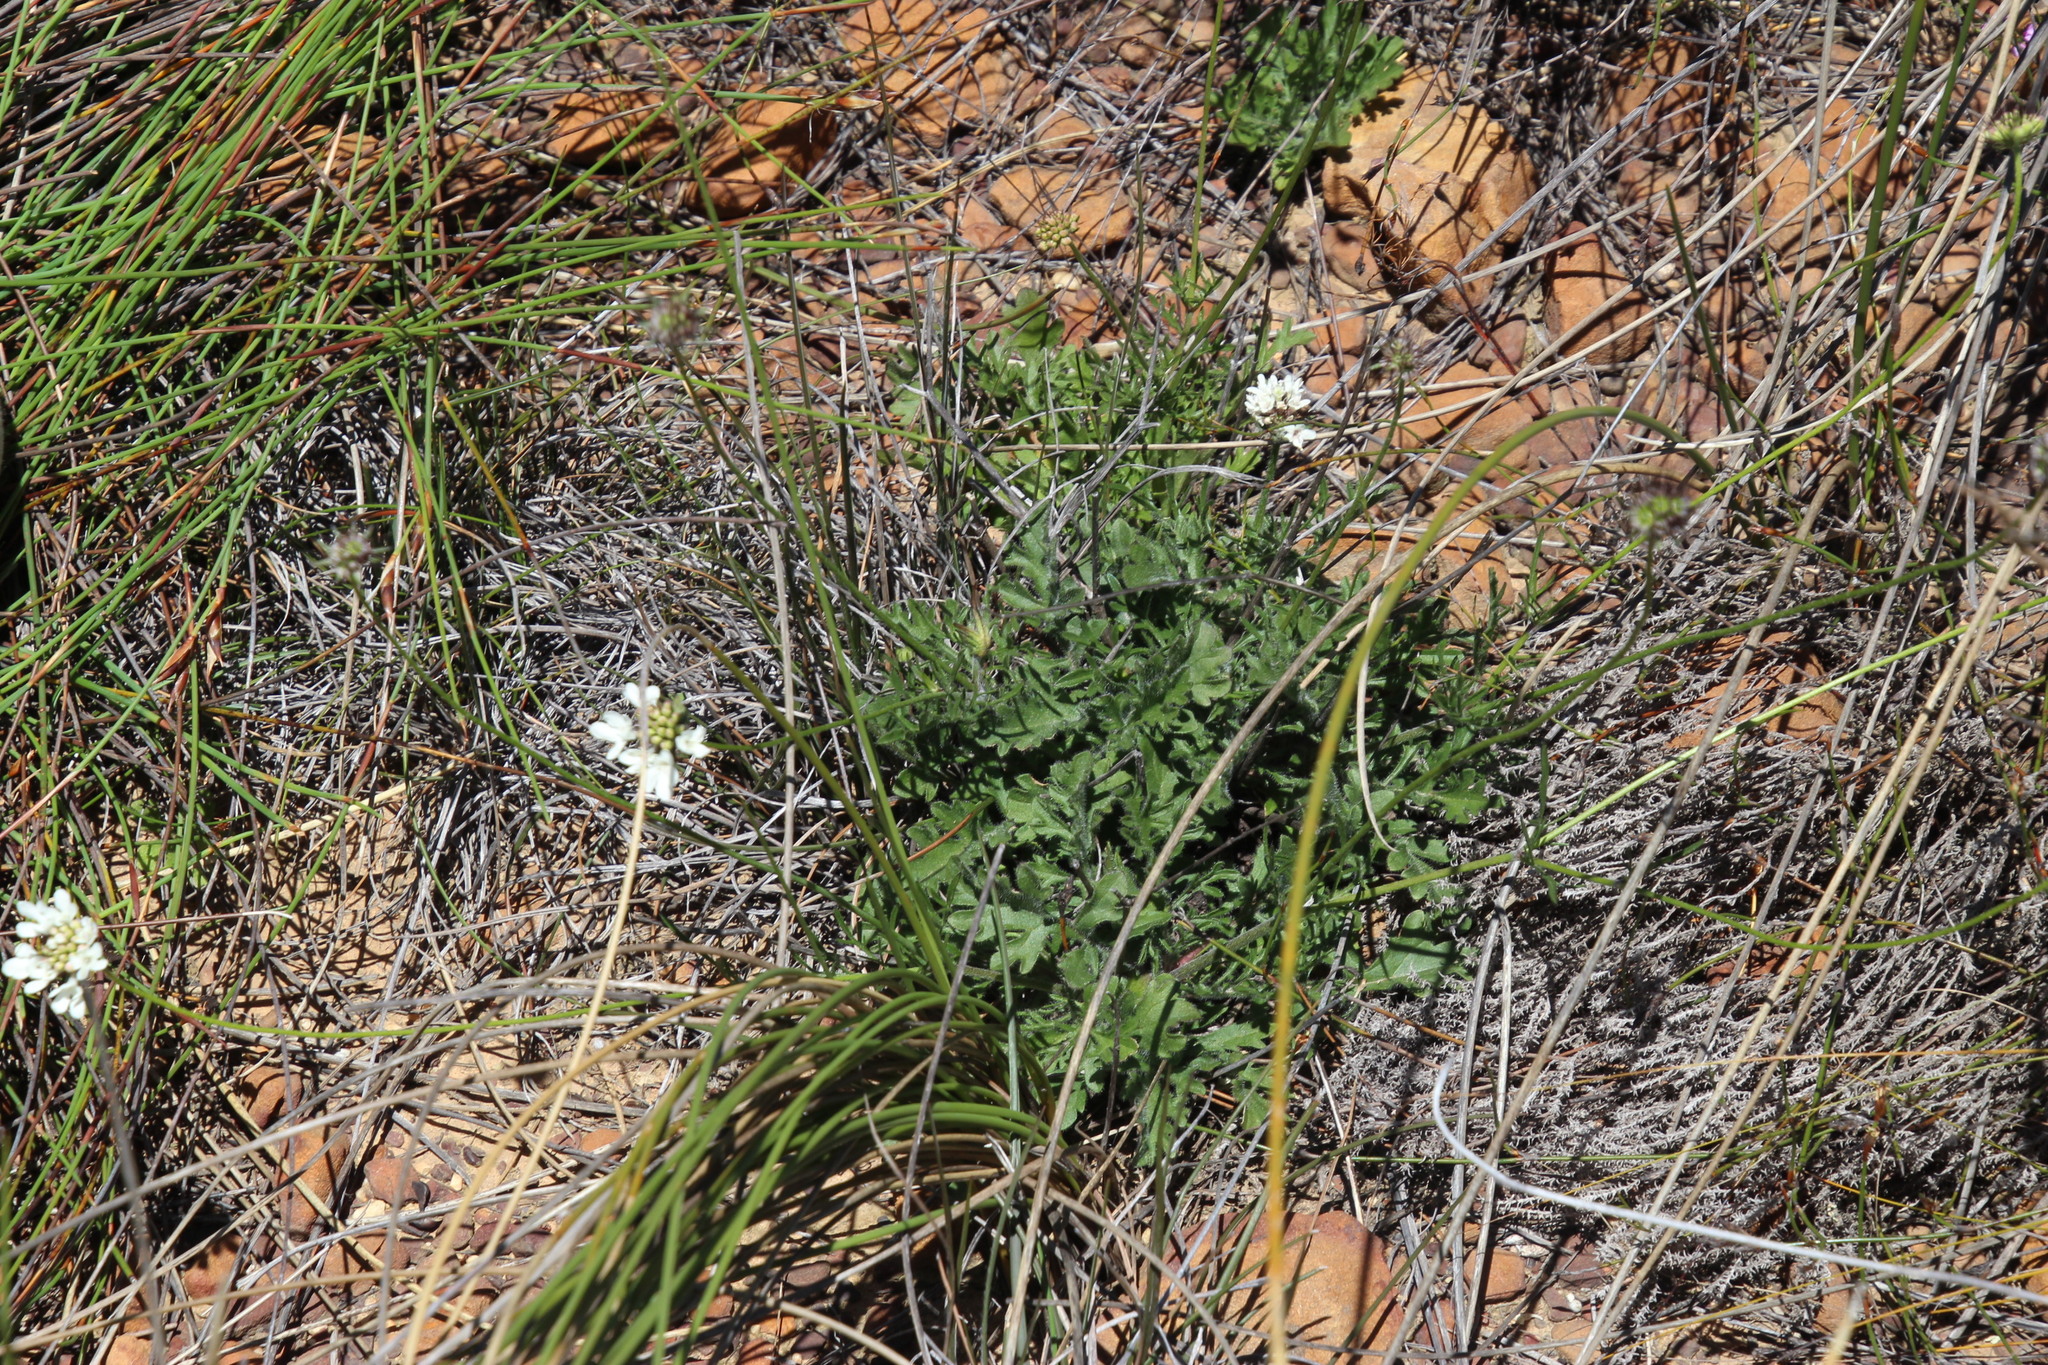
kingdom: Plantae
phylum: Tracheophyta
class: Magnoliopsida
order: Dipsacales
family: Caprifoliaceae
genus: Scabiosa
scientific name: Scabiosa columbaria
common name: Small scabious
